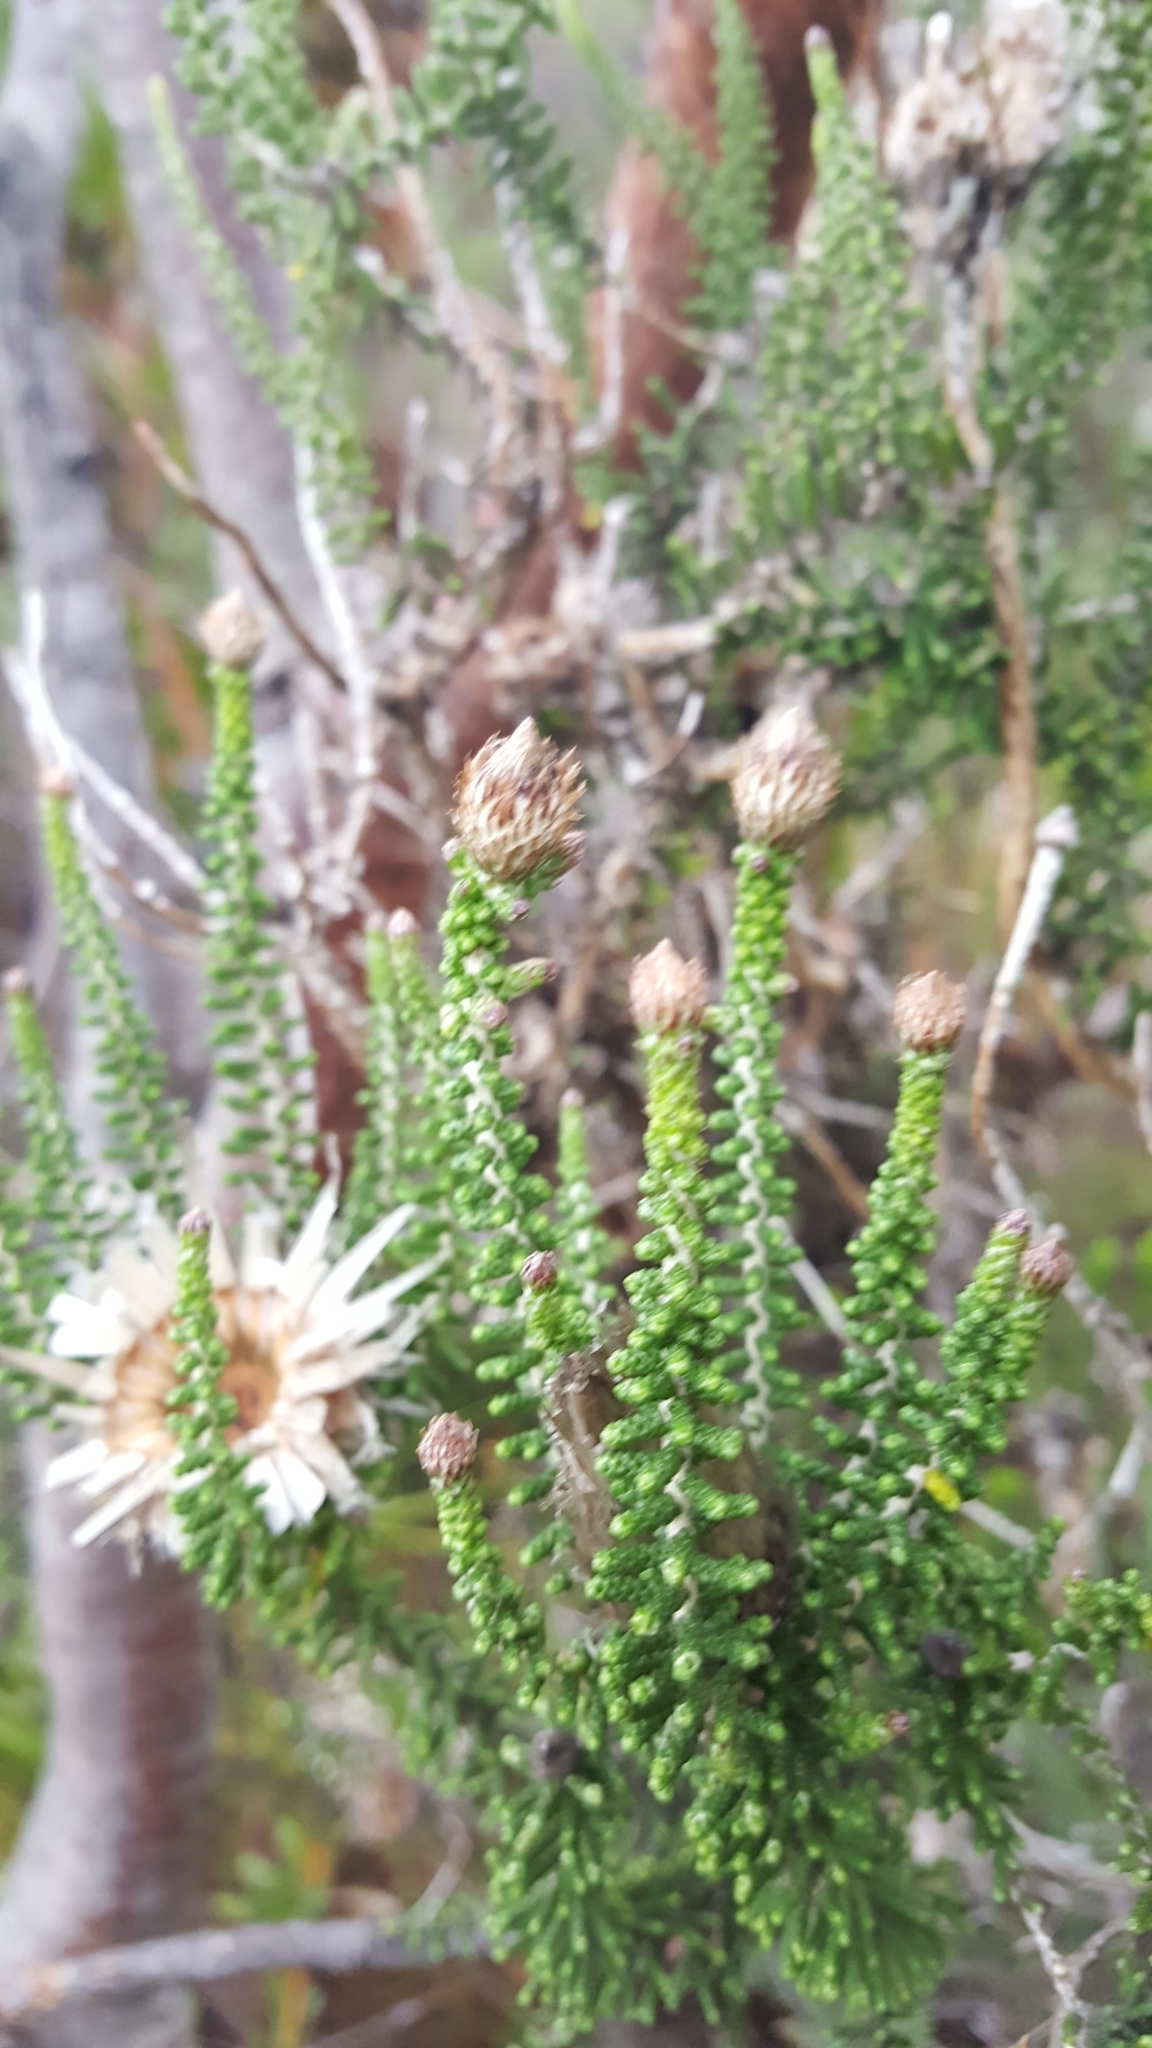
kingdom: Plantae
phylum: Tracheophyta
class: Magnoliopsida
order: Asterales
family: Asteraceae
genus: Phaenocoma
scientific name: Phaenocoma prolifera
